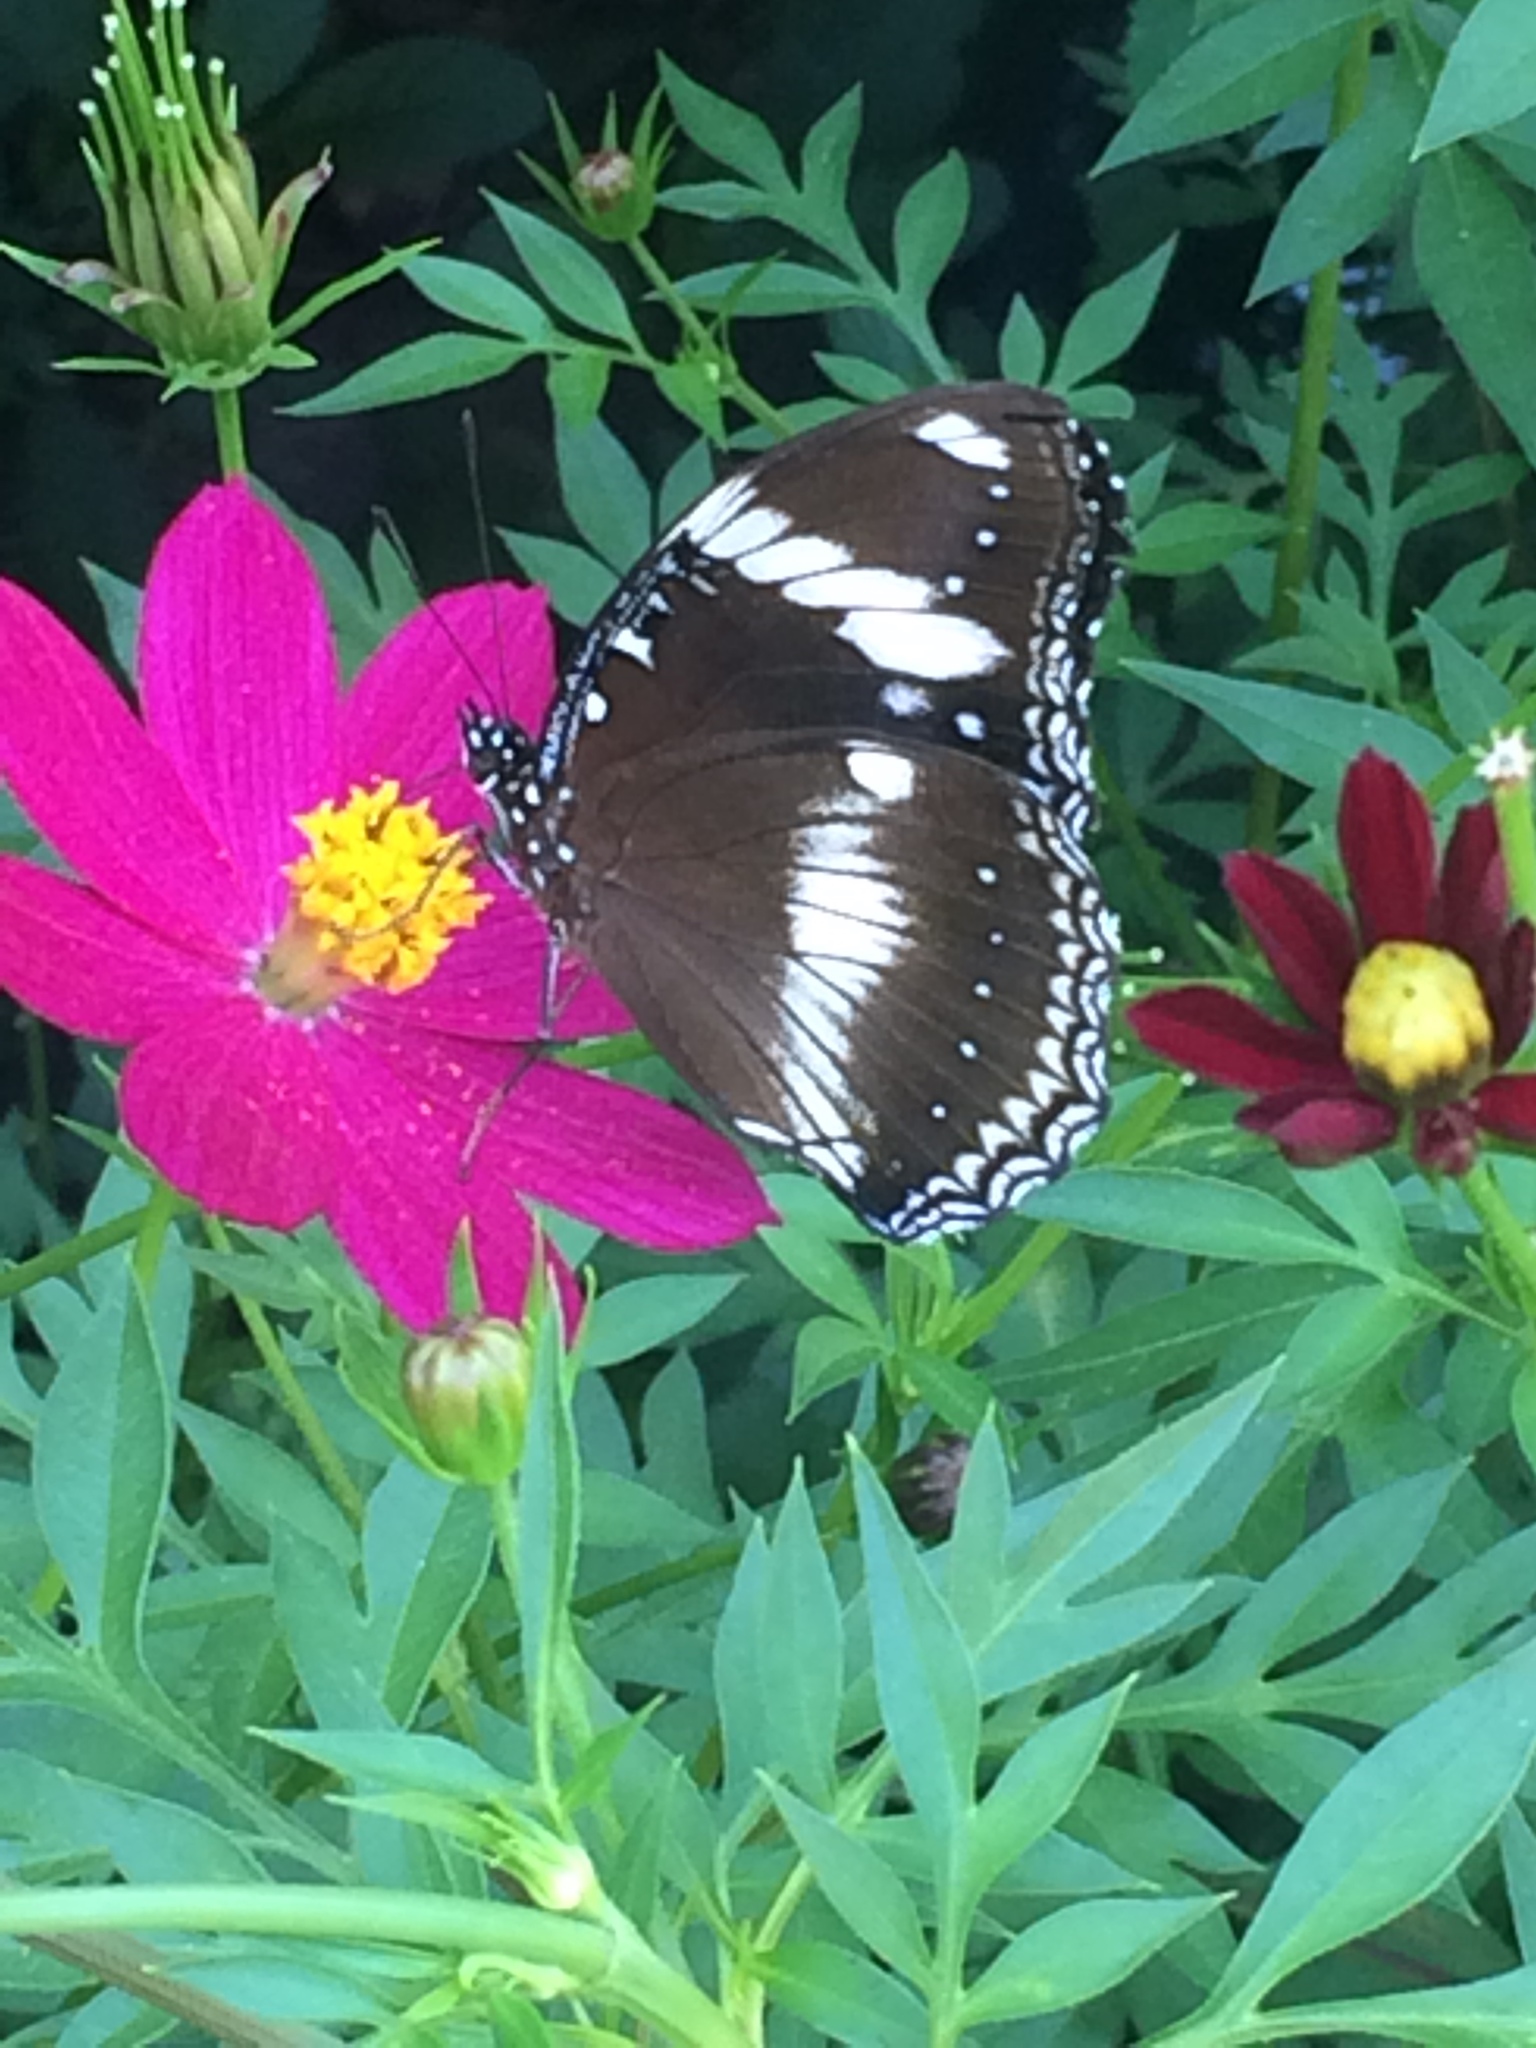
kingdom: Animalia
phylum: Arthropoda
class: Insecta
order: Lepidoptera
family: Nymphalidae
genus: Hypolimnas
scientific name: Hypolimnas bolina
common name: Great eggfly
